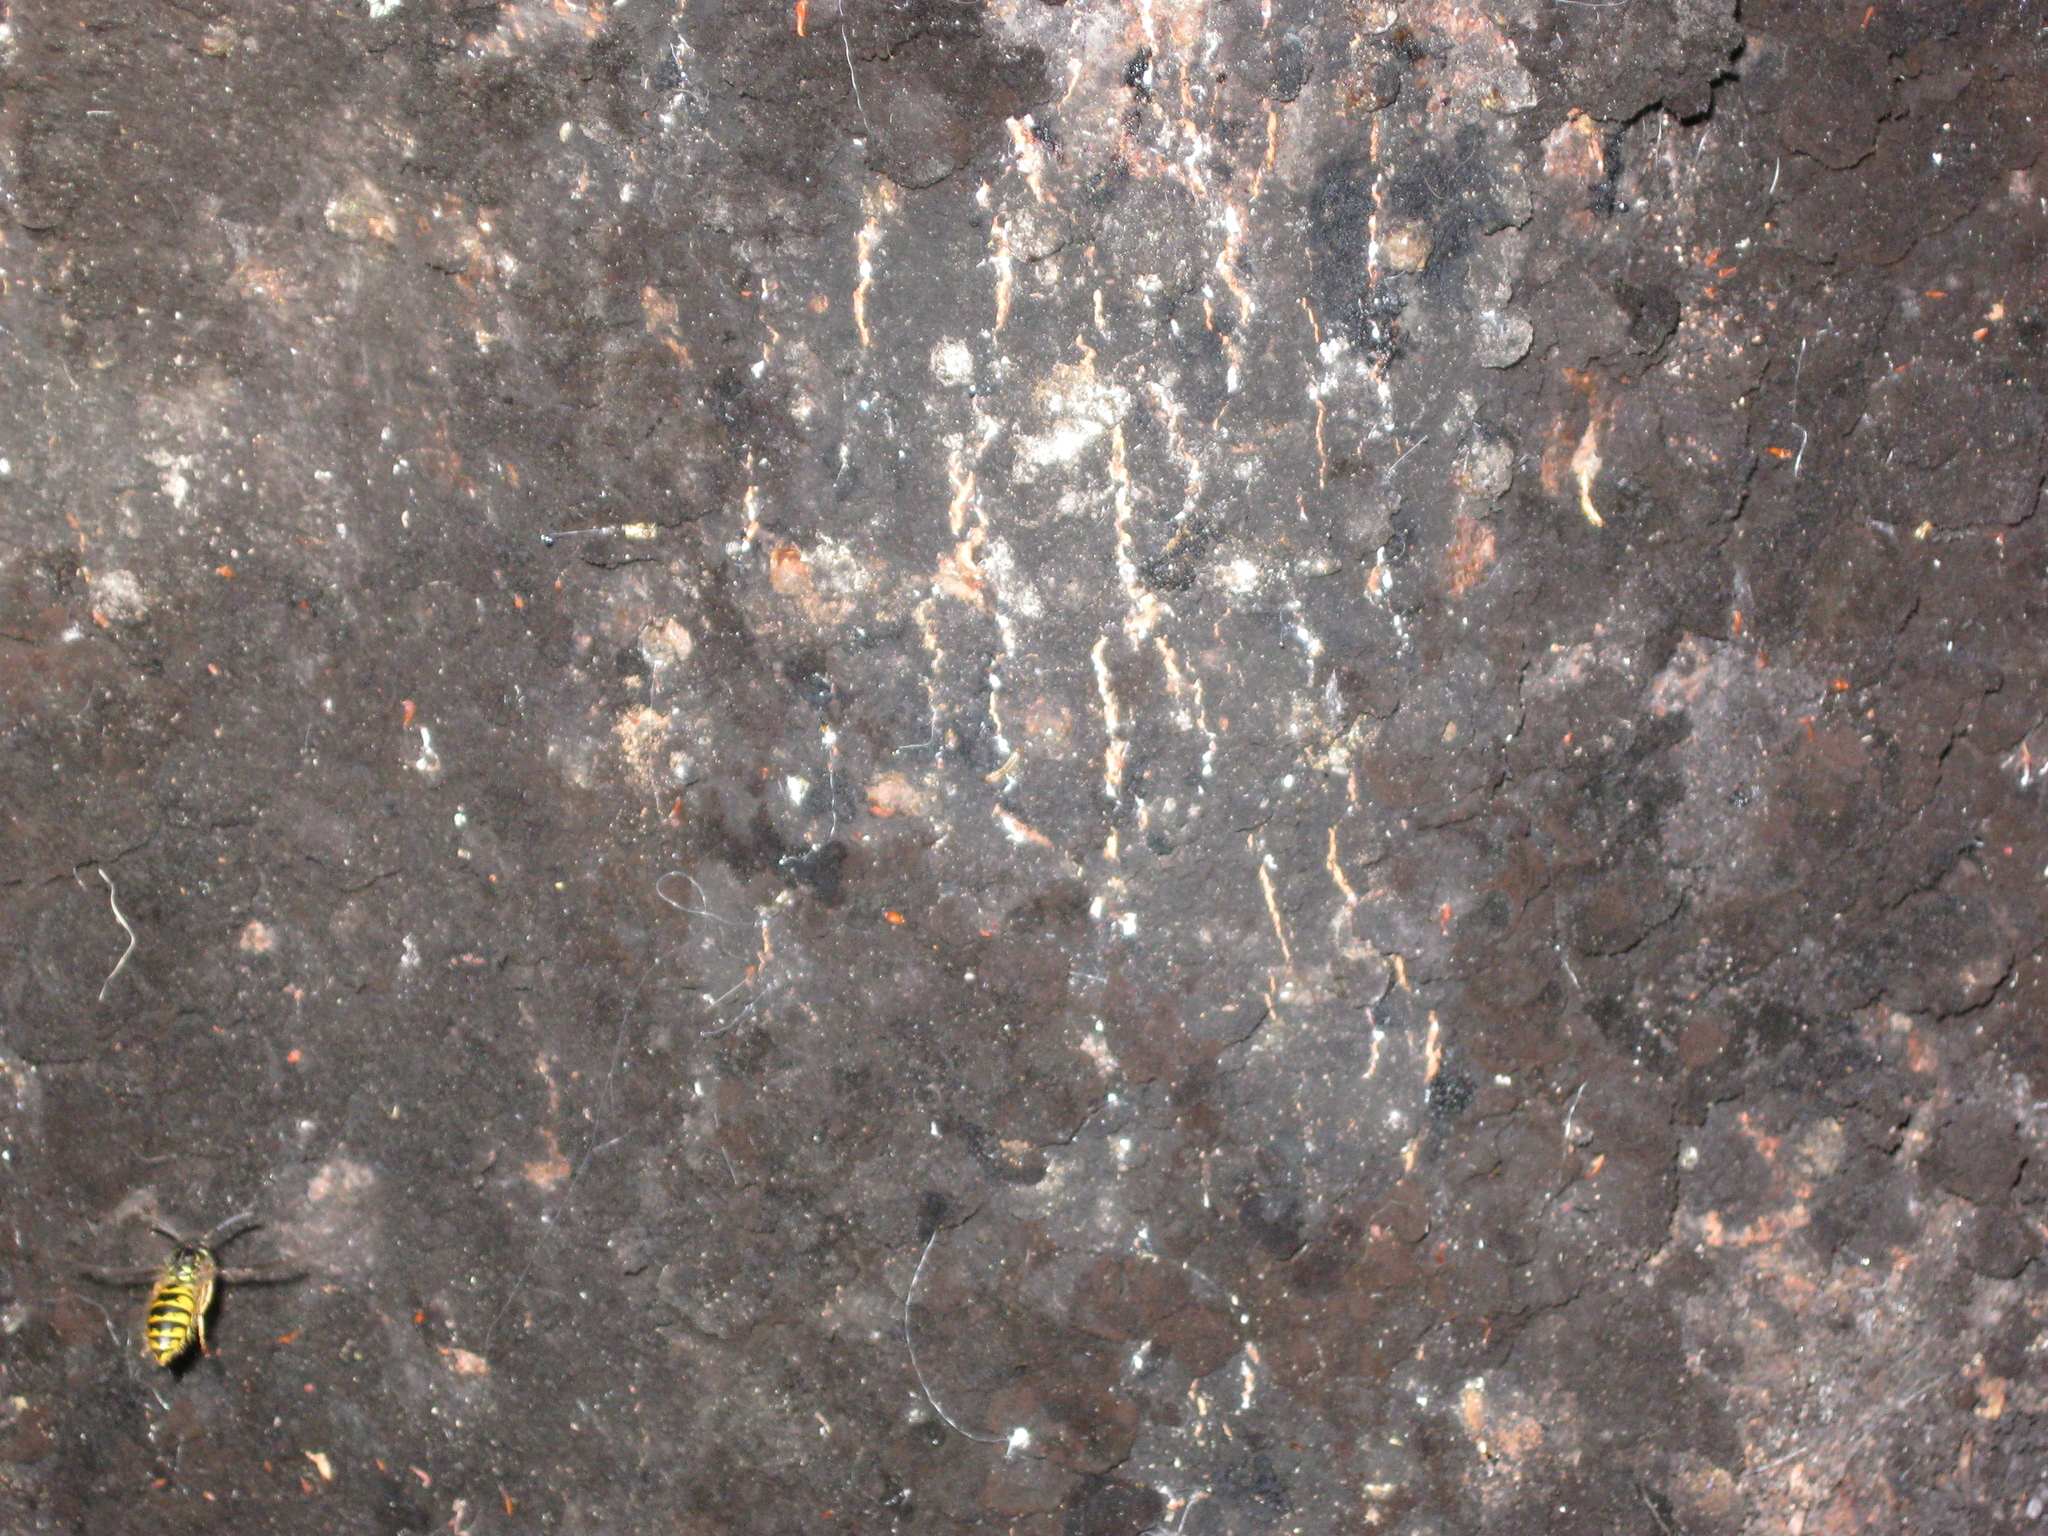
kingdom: Animalia
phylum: Arthropoda
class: Insecta
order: Hymenoptera
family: Vespidae
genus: Vespula
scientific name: Vespula
